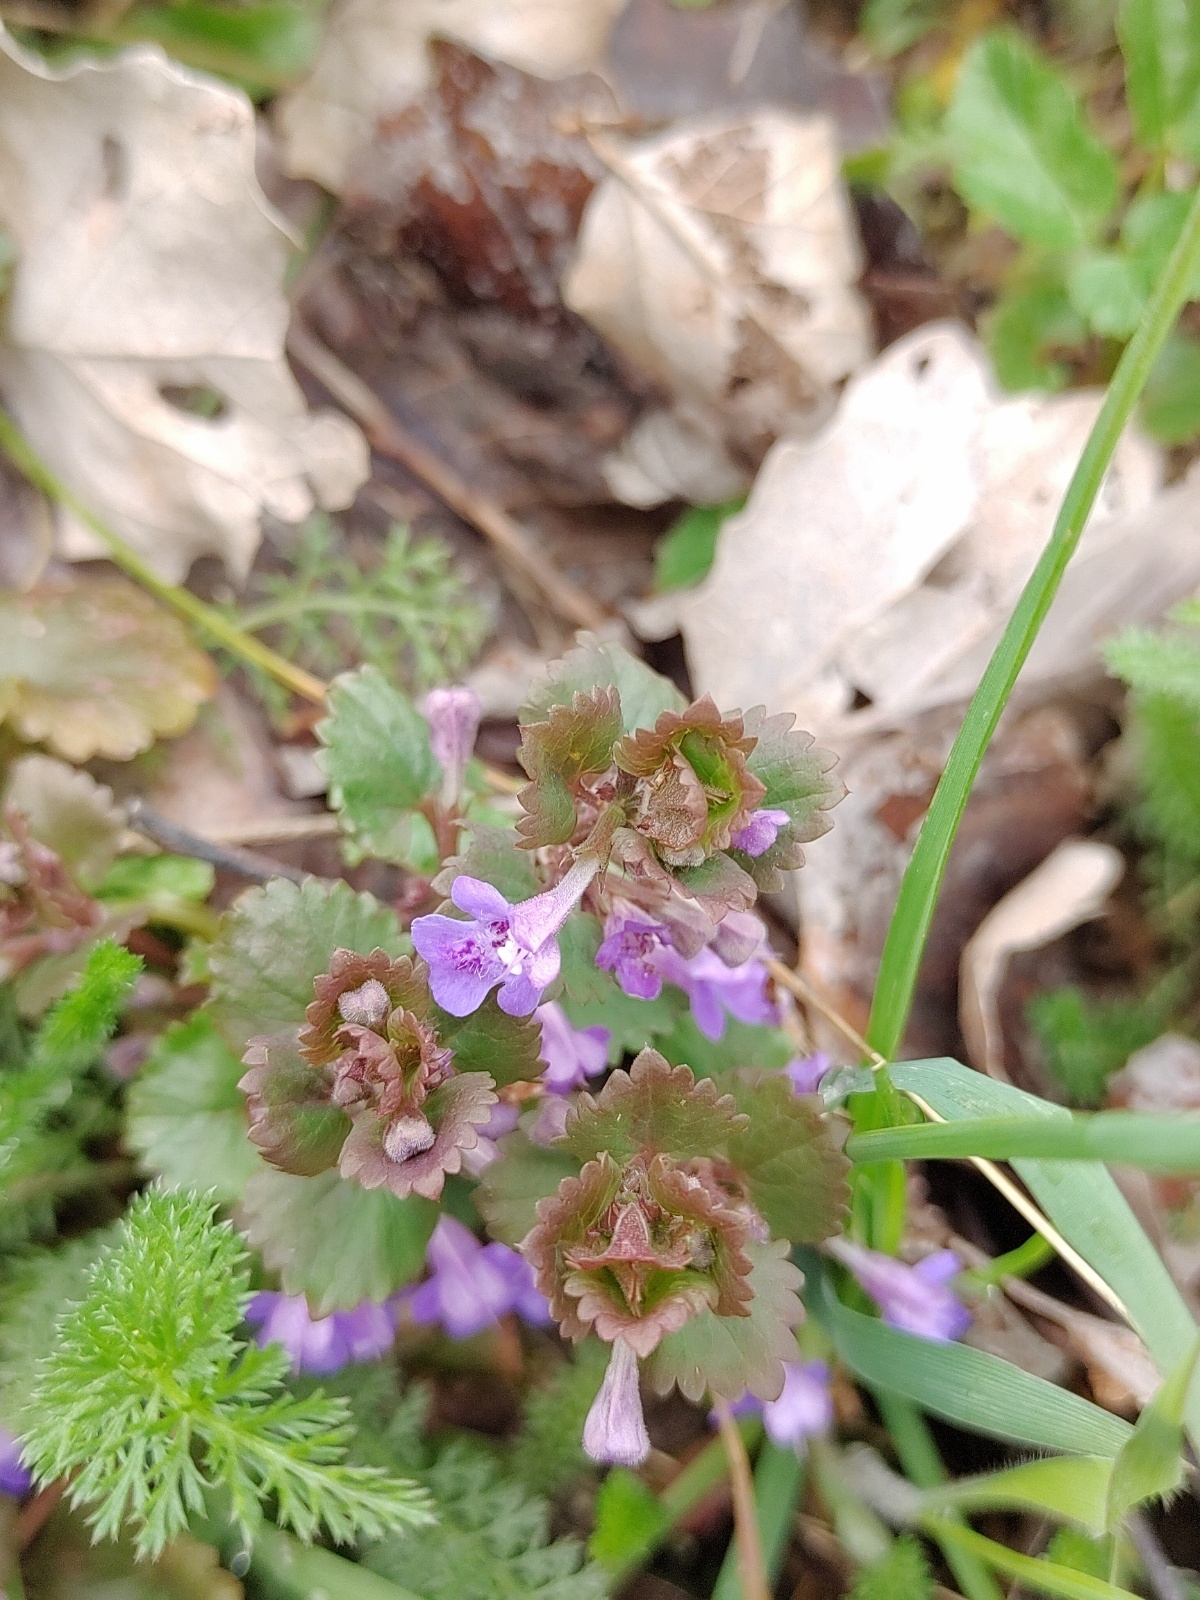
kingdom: Plantae
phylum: Tracheophyta
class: Magnoliopsida
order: Lamiales
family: Lamiaceae
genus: Glechoma
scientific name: Glechoma hederacea
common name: Ground ivy
